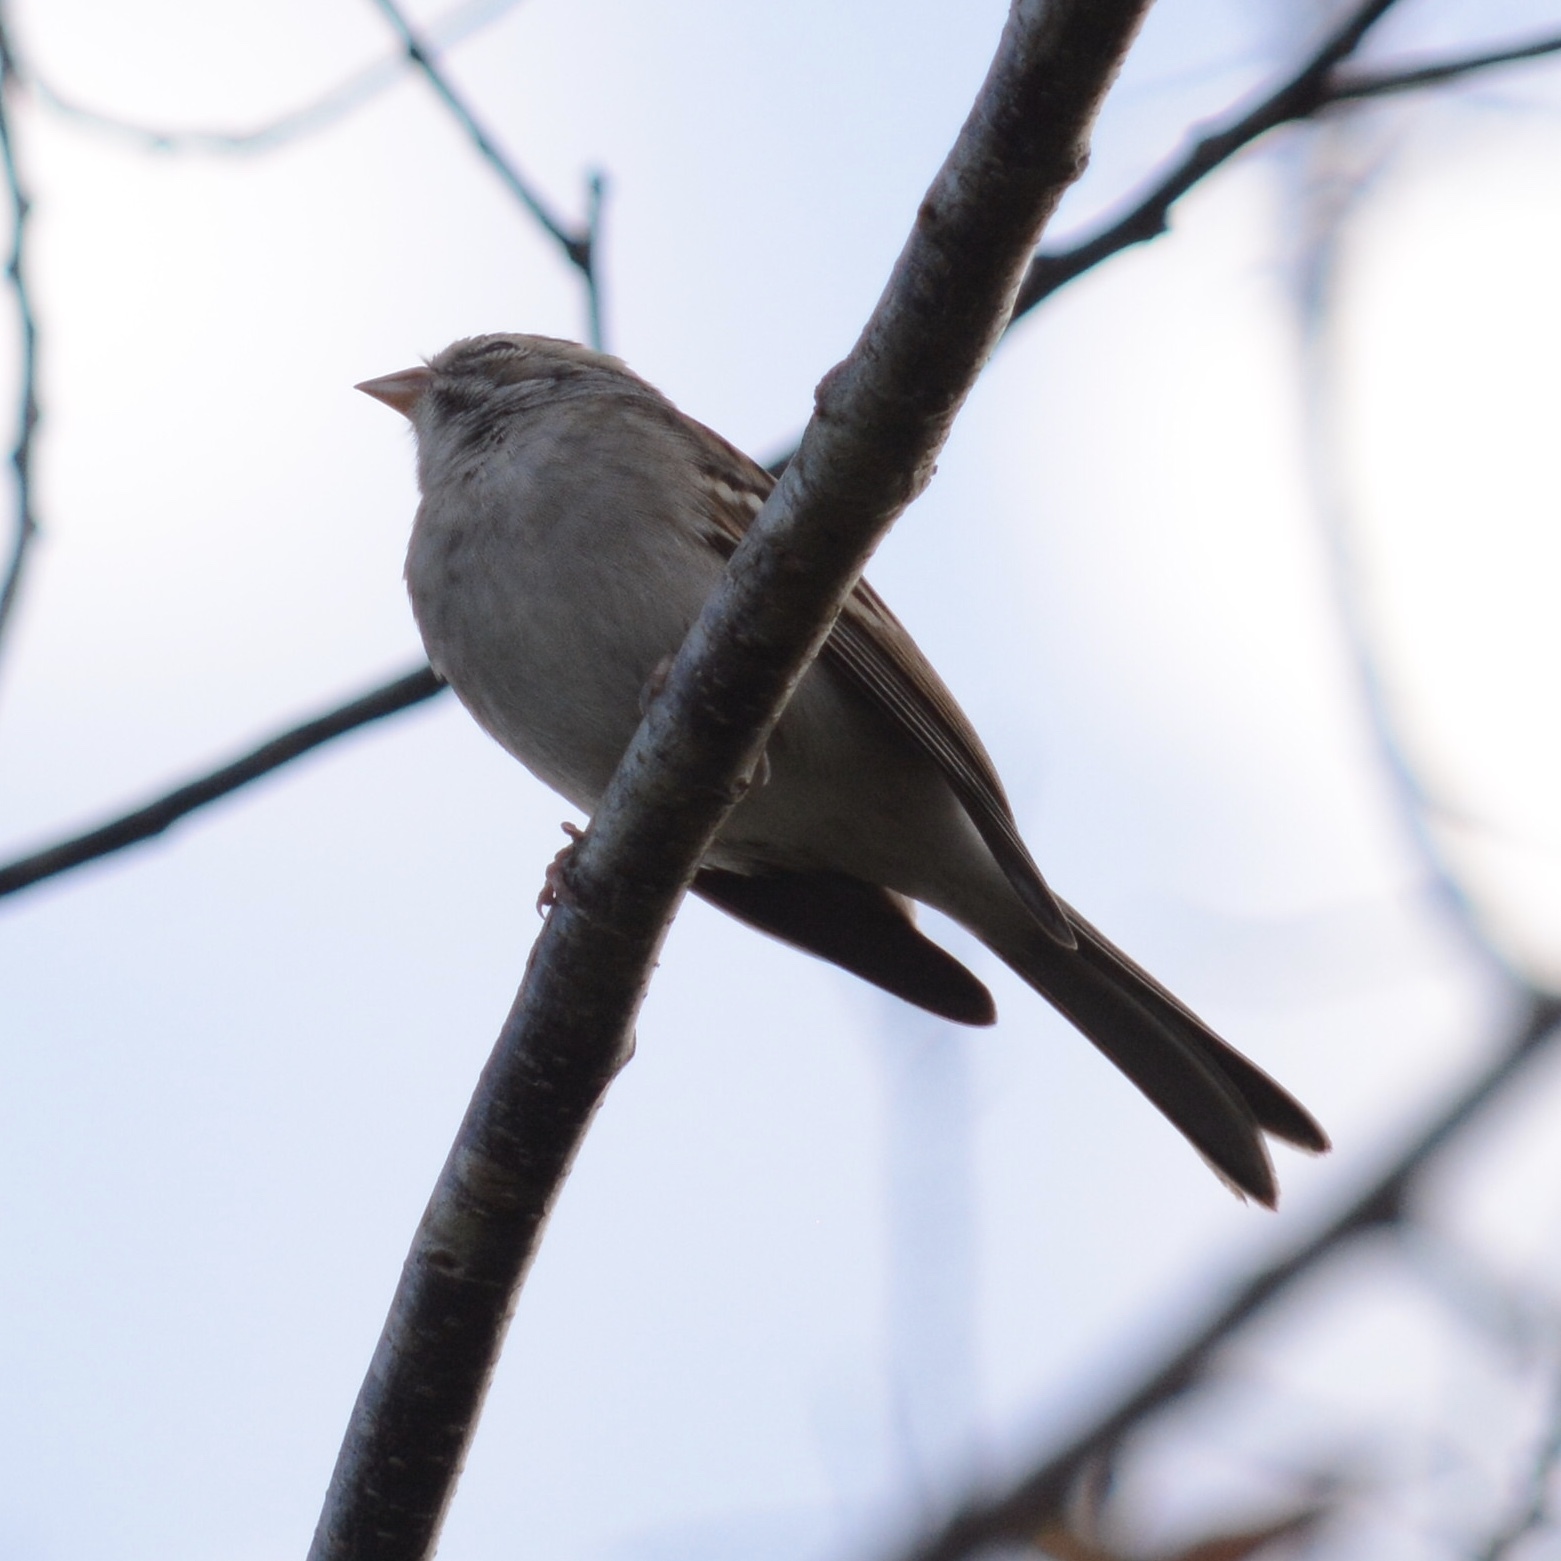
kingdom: Animalia
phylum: Chordata
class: Aves
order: Passeriformes
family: Passerellidae
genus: Spizella
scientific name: Spizella passerina
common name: Chipping sparrow
